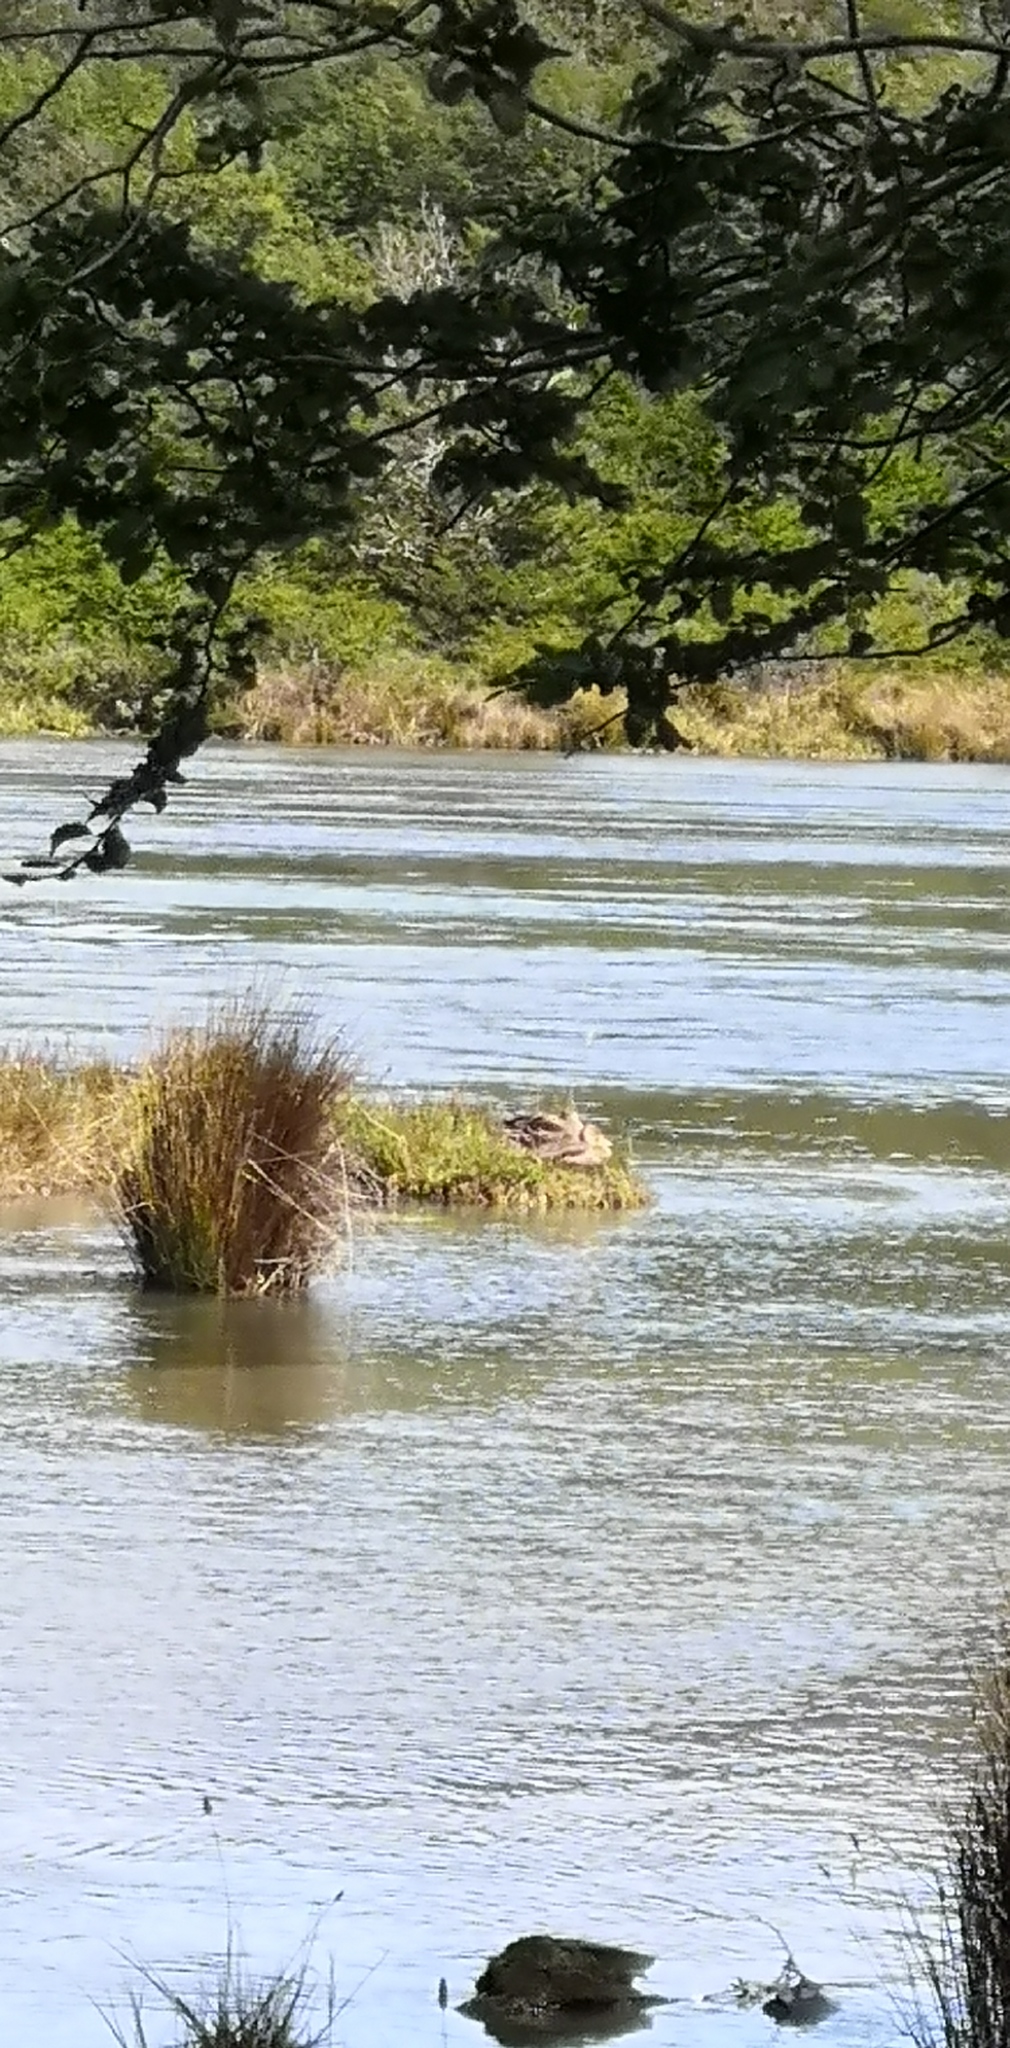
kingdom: Animalia
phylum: Chordata
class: Aves
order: Anseriformes
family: Anatidae
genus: Anas
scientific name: Anas georgica
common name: Yellow-billed pintail
